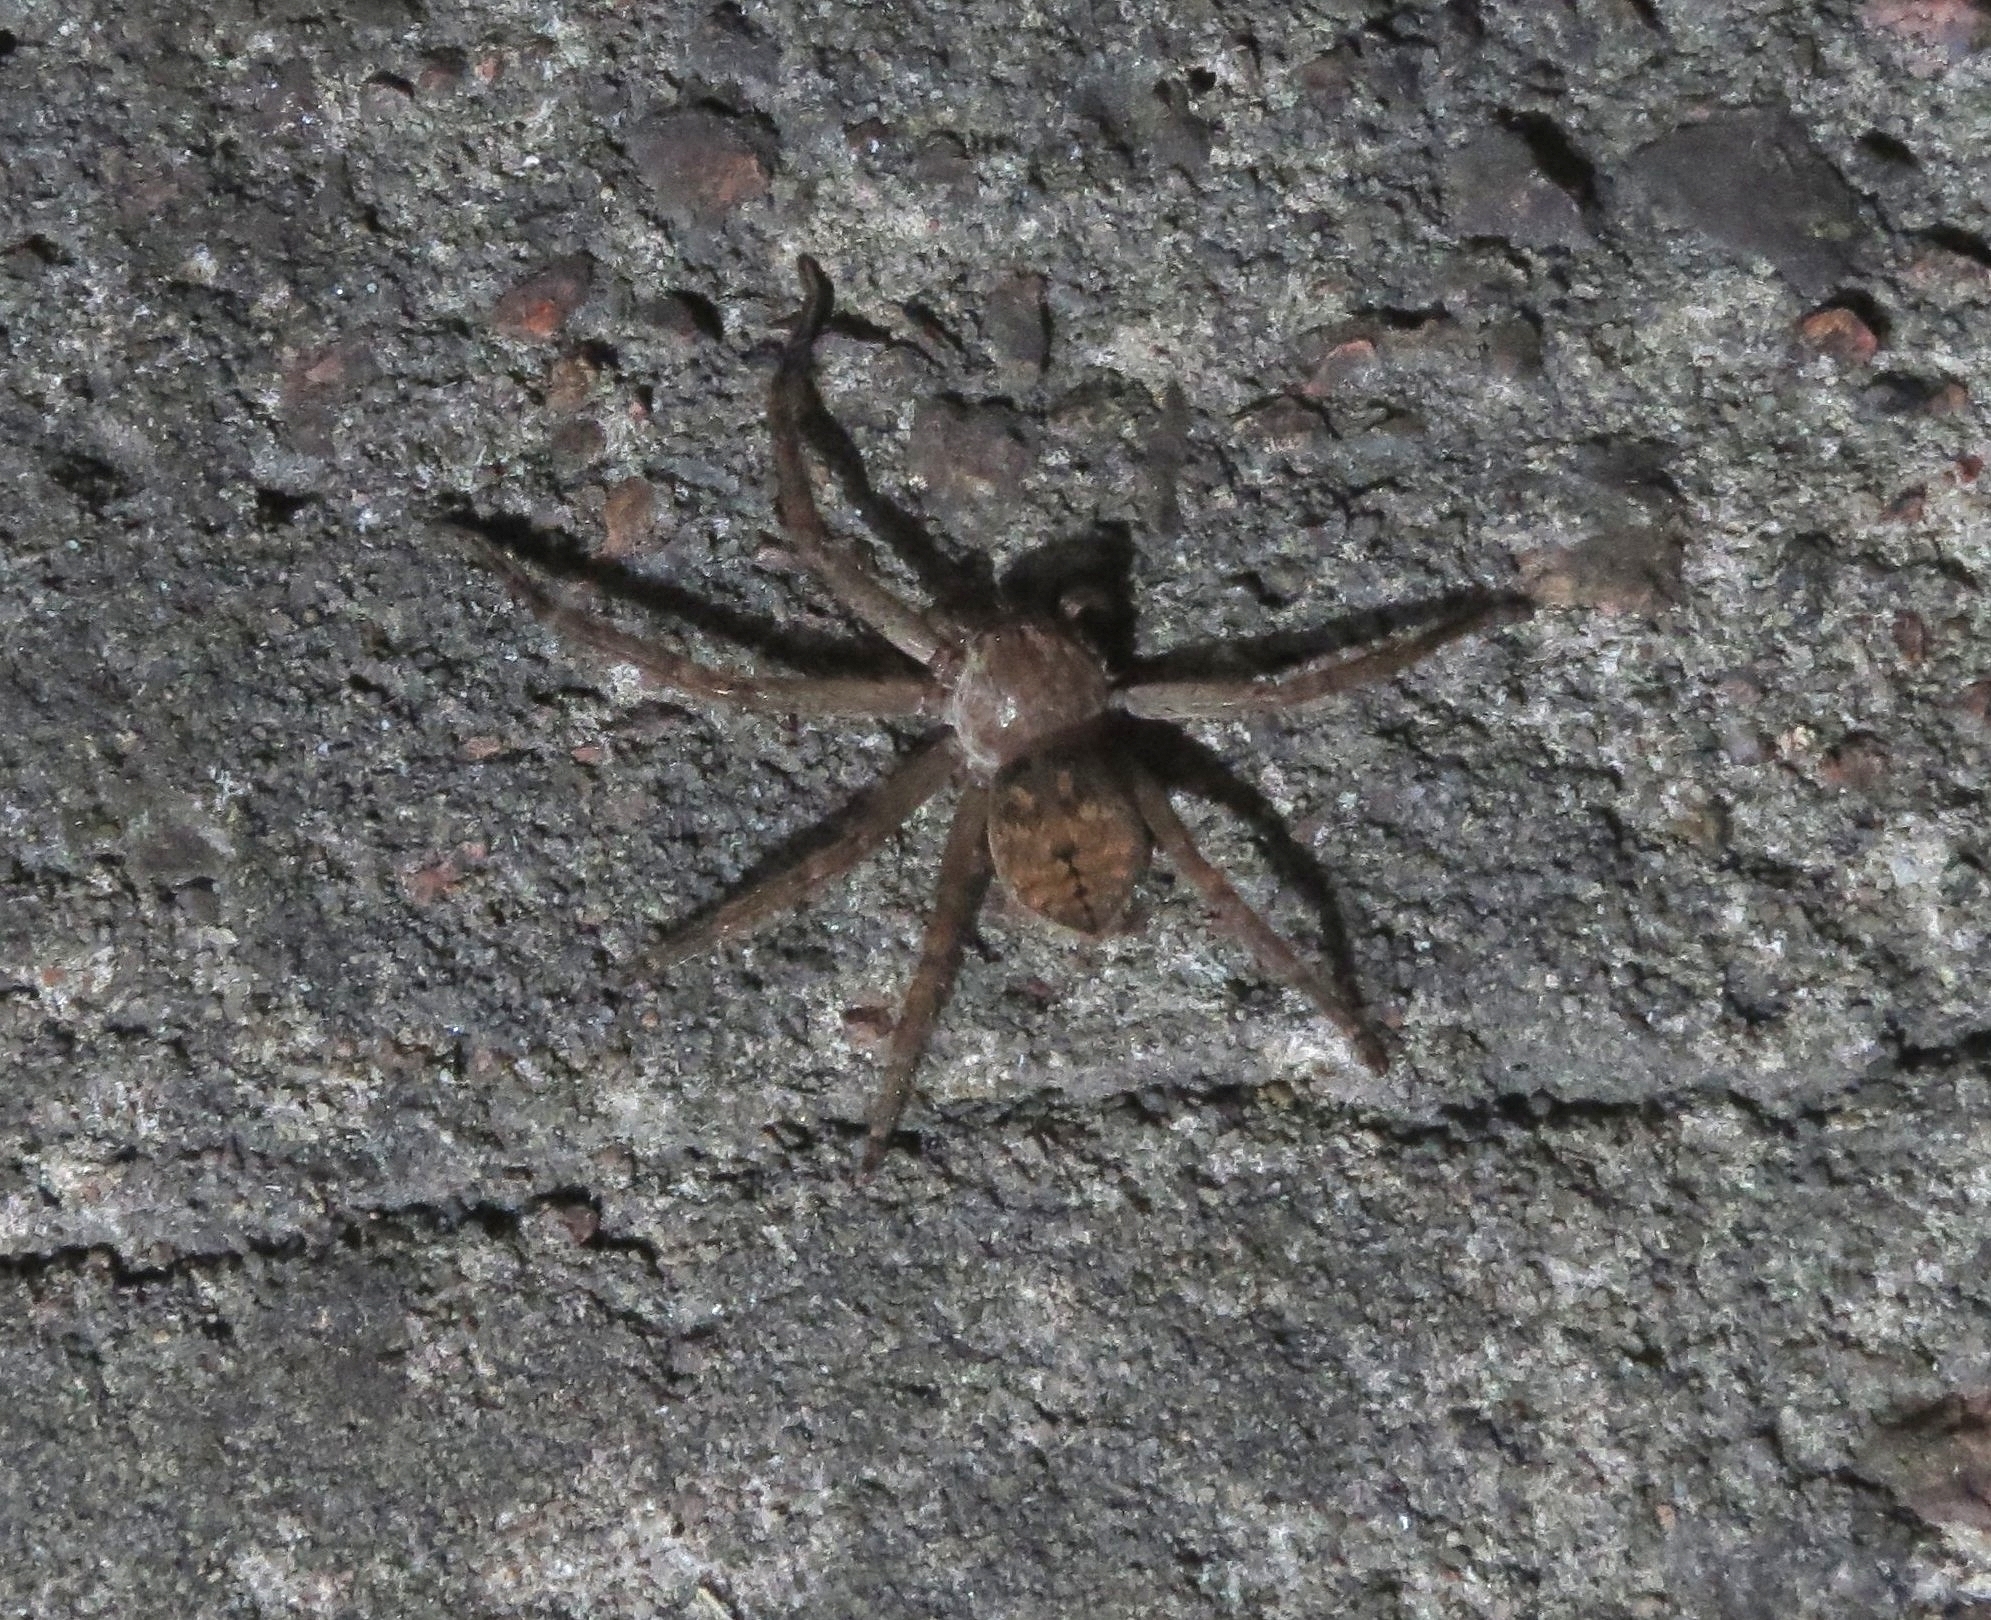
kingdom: Animalia
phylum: Arthropoda
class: Arachnida
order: Araneae
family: Sparassidae
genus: Polybetes
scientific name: Polybetes rapidus
